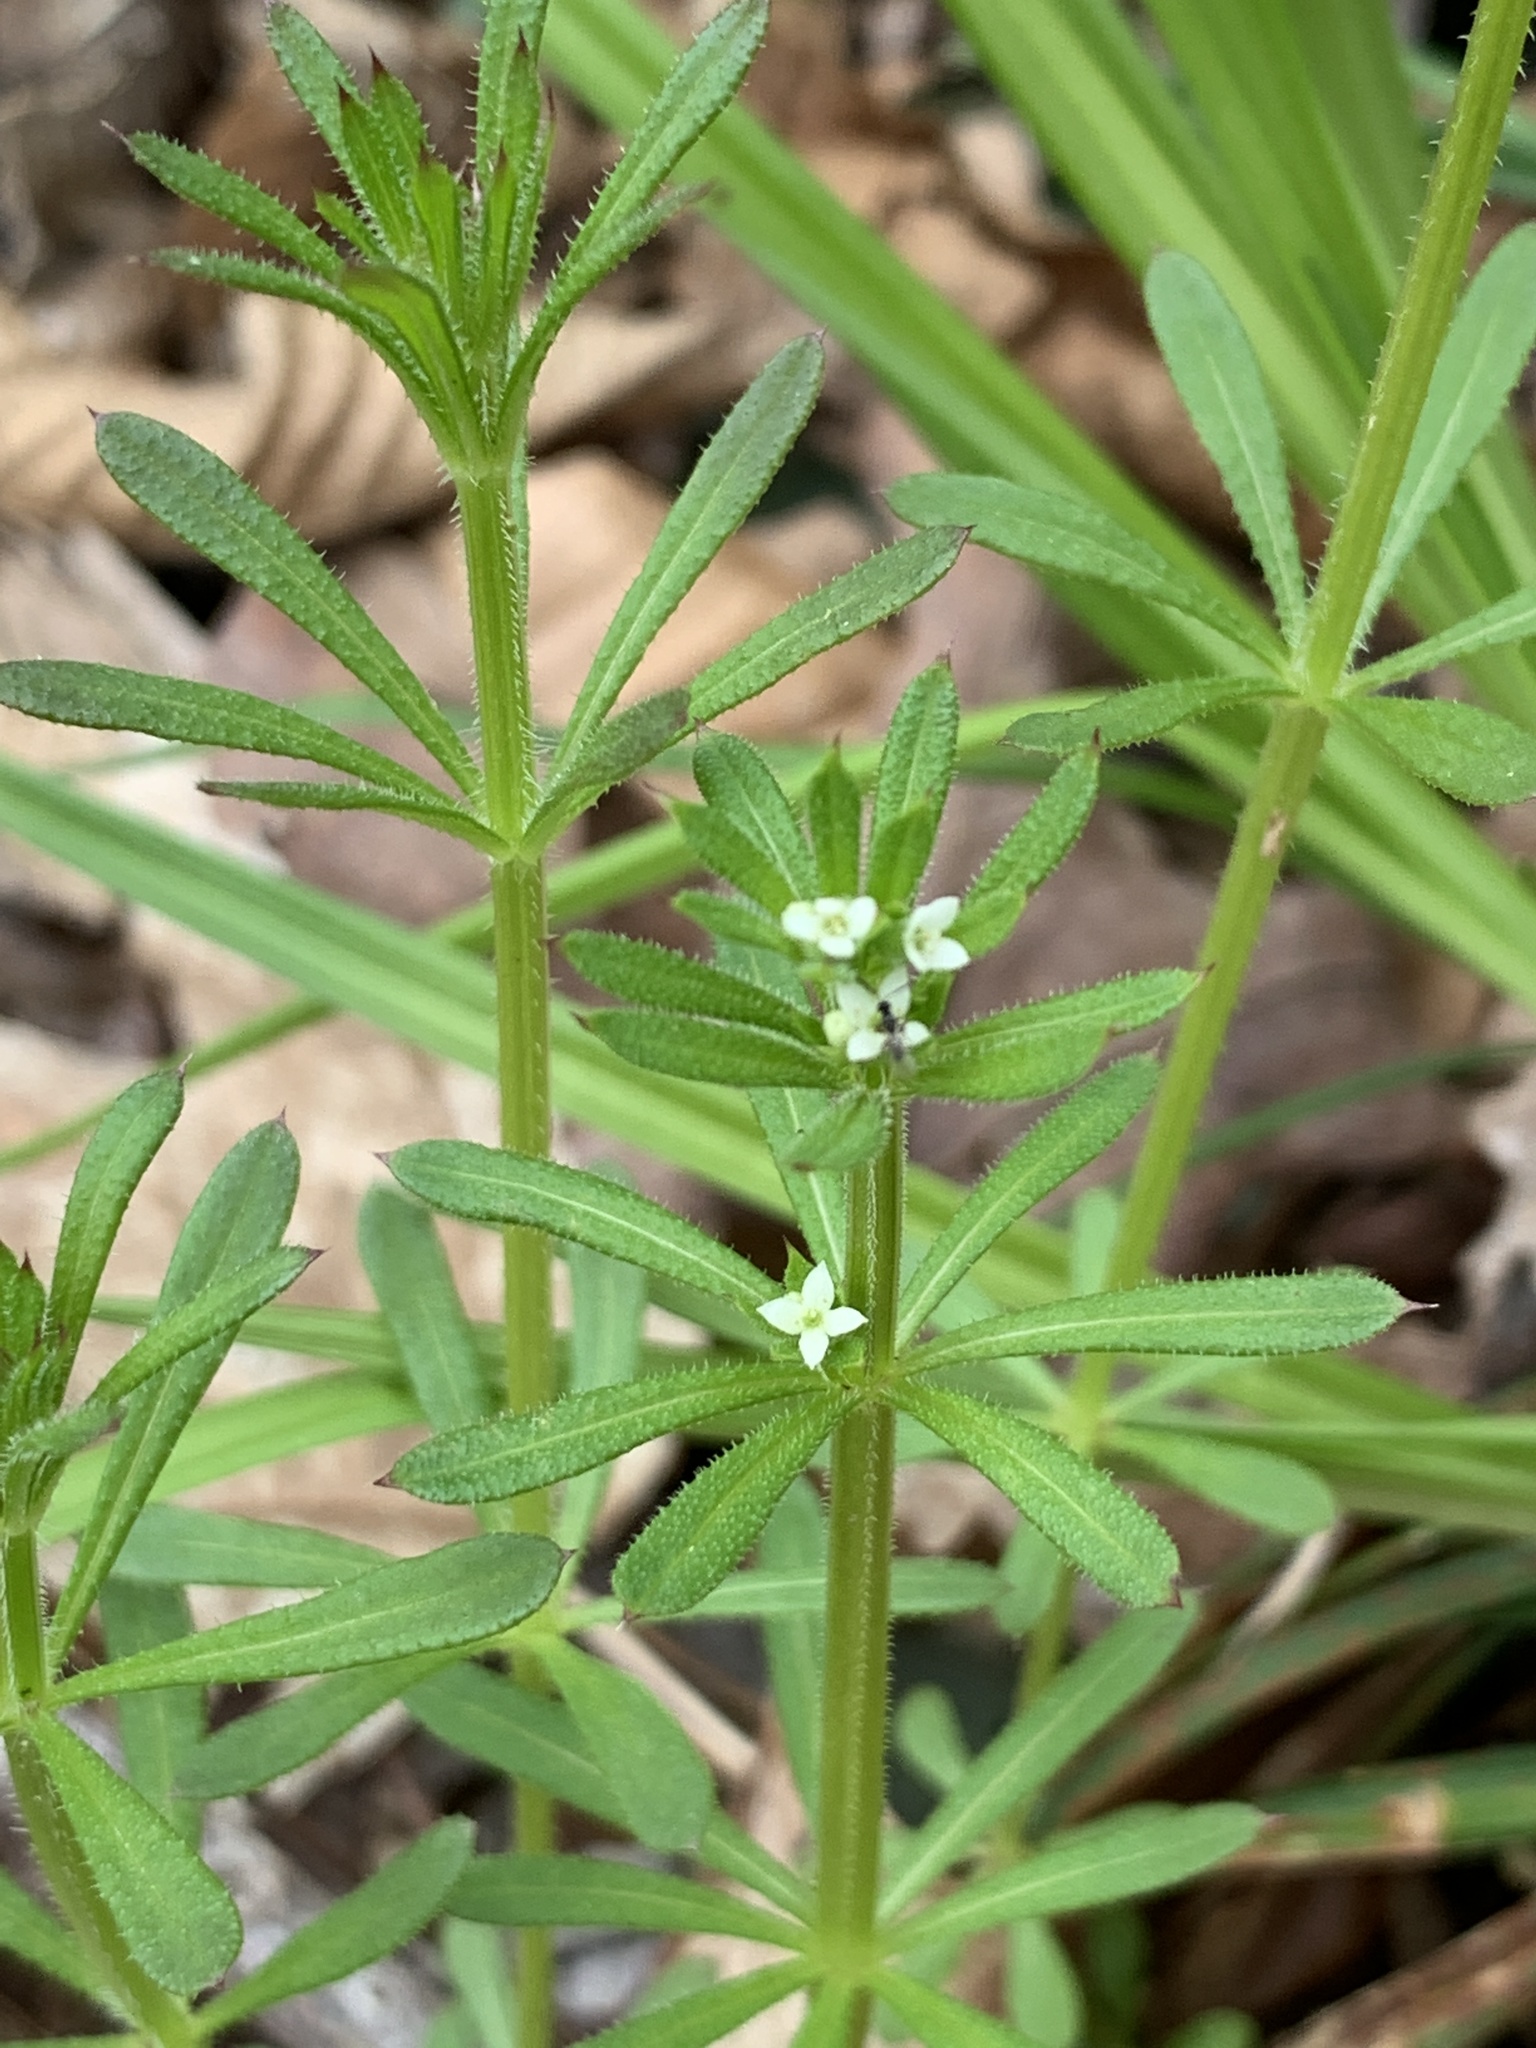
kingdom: Plantae
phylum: Tracheophyta
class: Magnoliopsida
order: Gentianales
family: Rubiaceae
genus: Galium
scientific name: Galium aparine
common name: Cleavers
